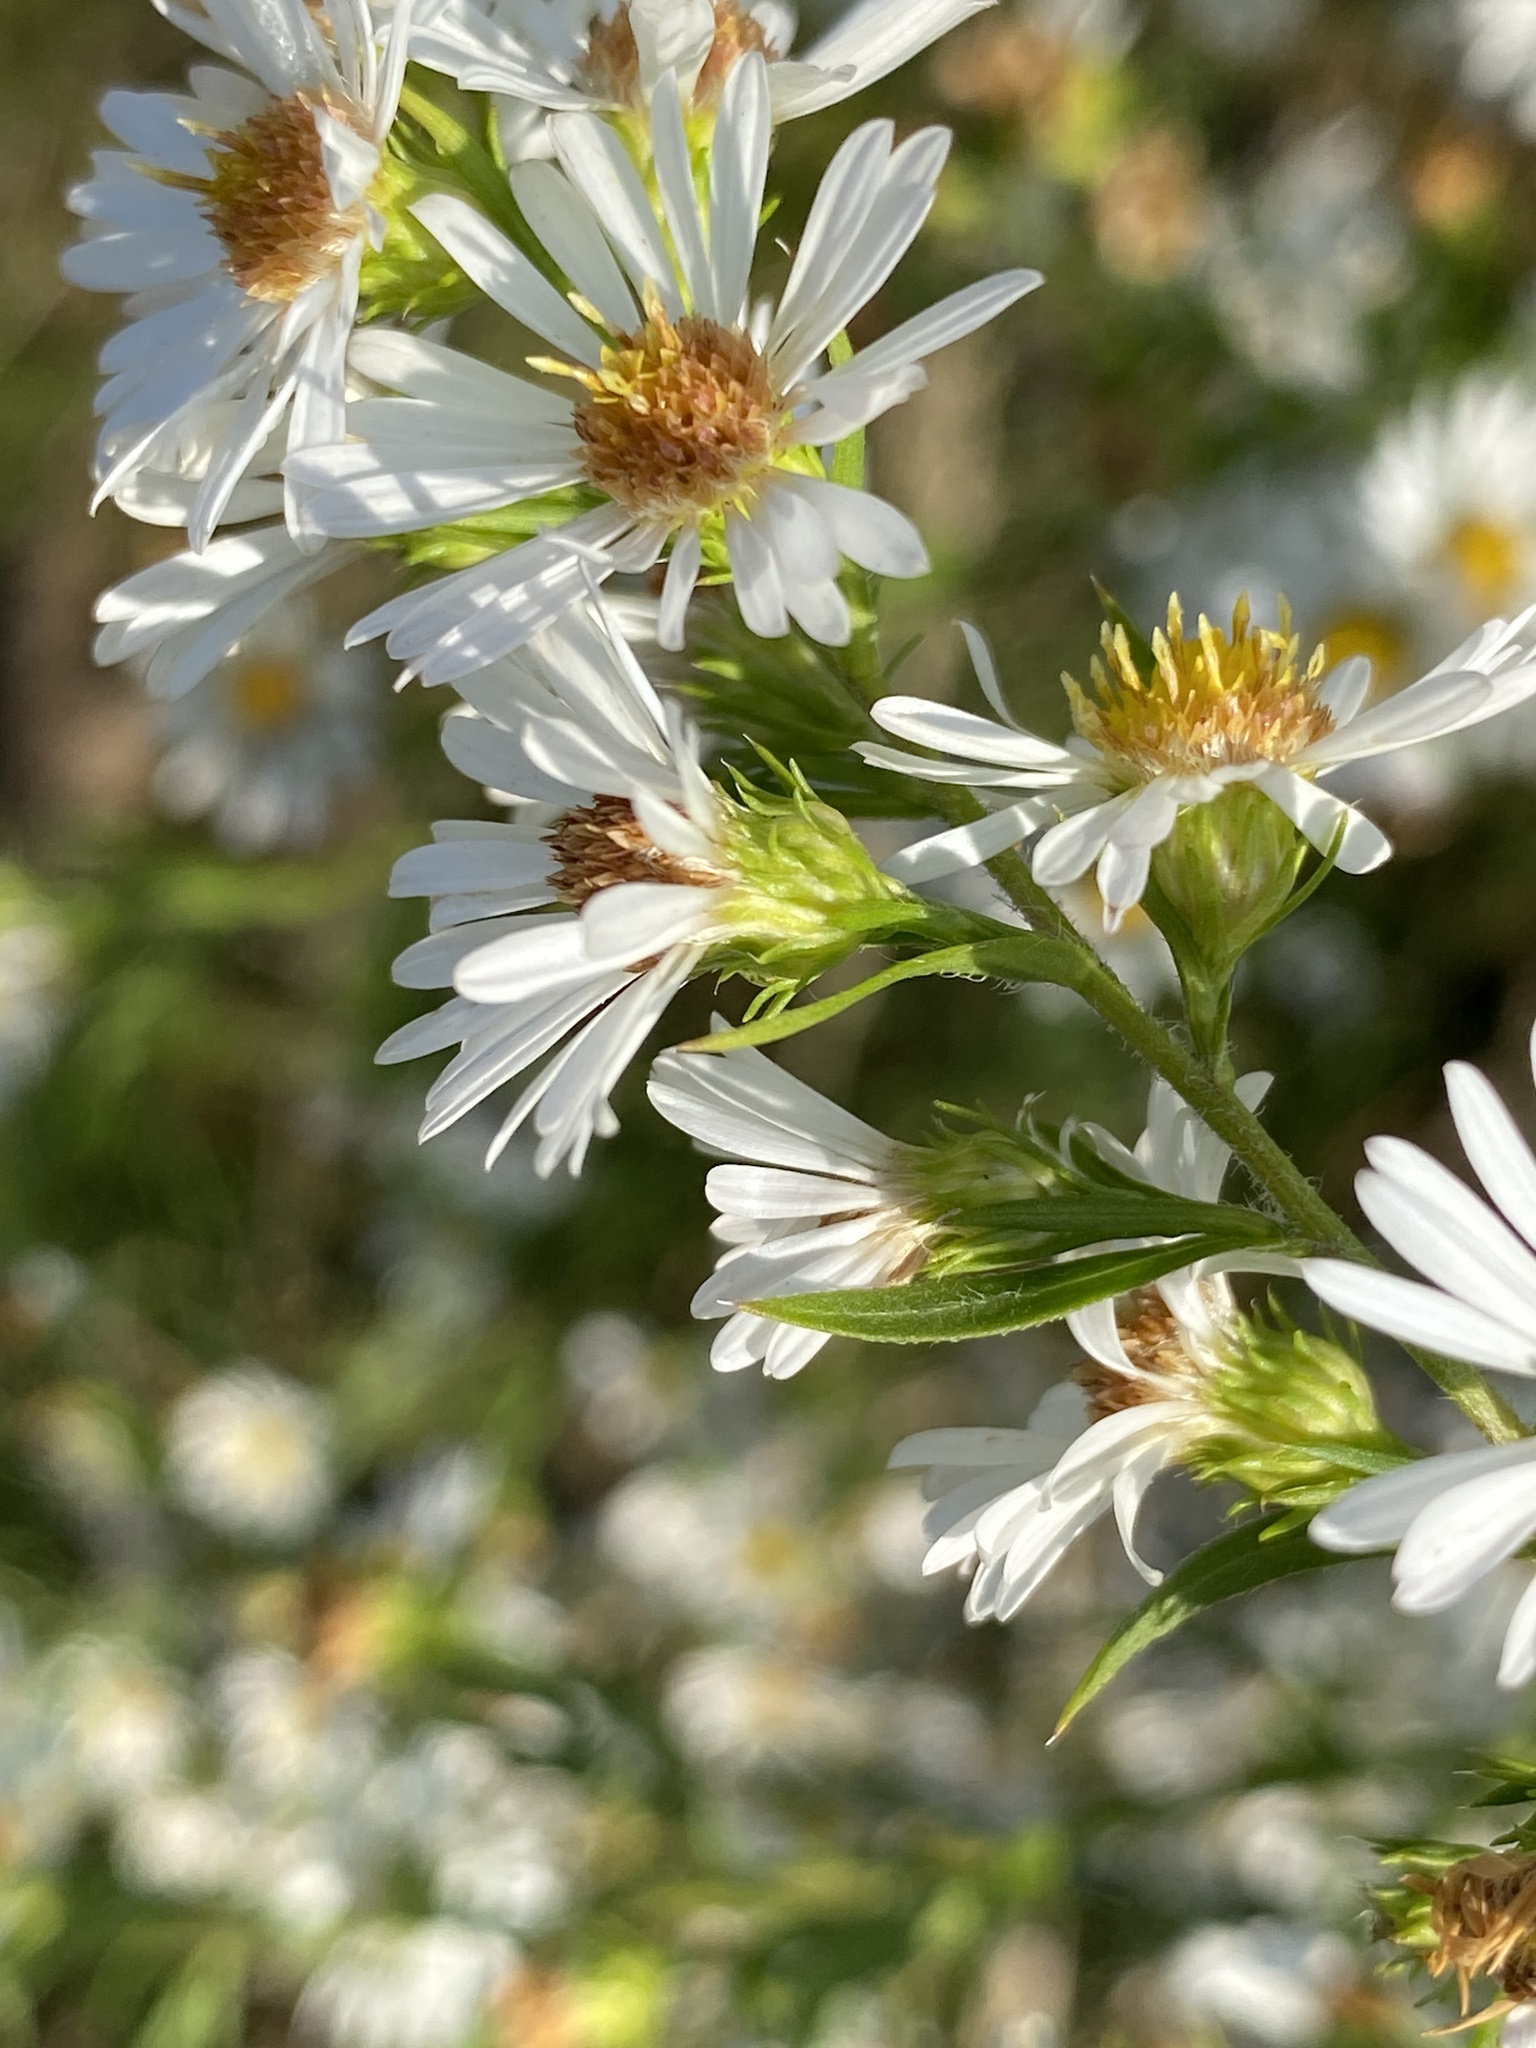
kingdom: Plantae
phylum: Tracheophyta
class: Magnoliopsida
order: Asterales
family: Asteraceae
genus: Symphyotrichum
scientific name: Symphyotrichum pilosum
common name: Awl aster
